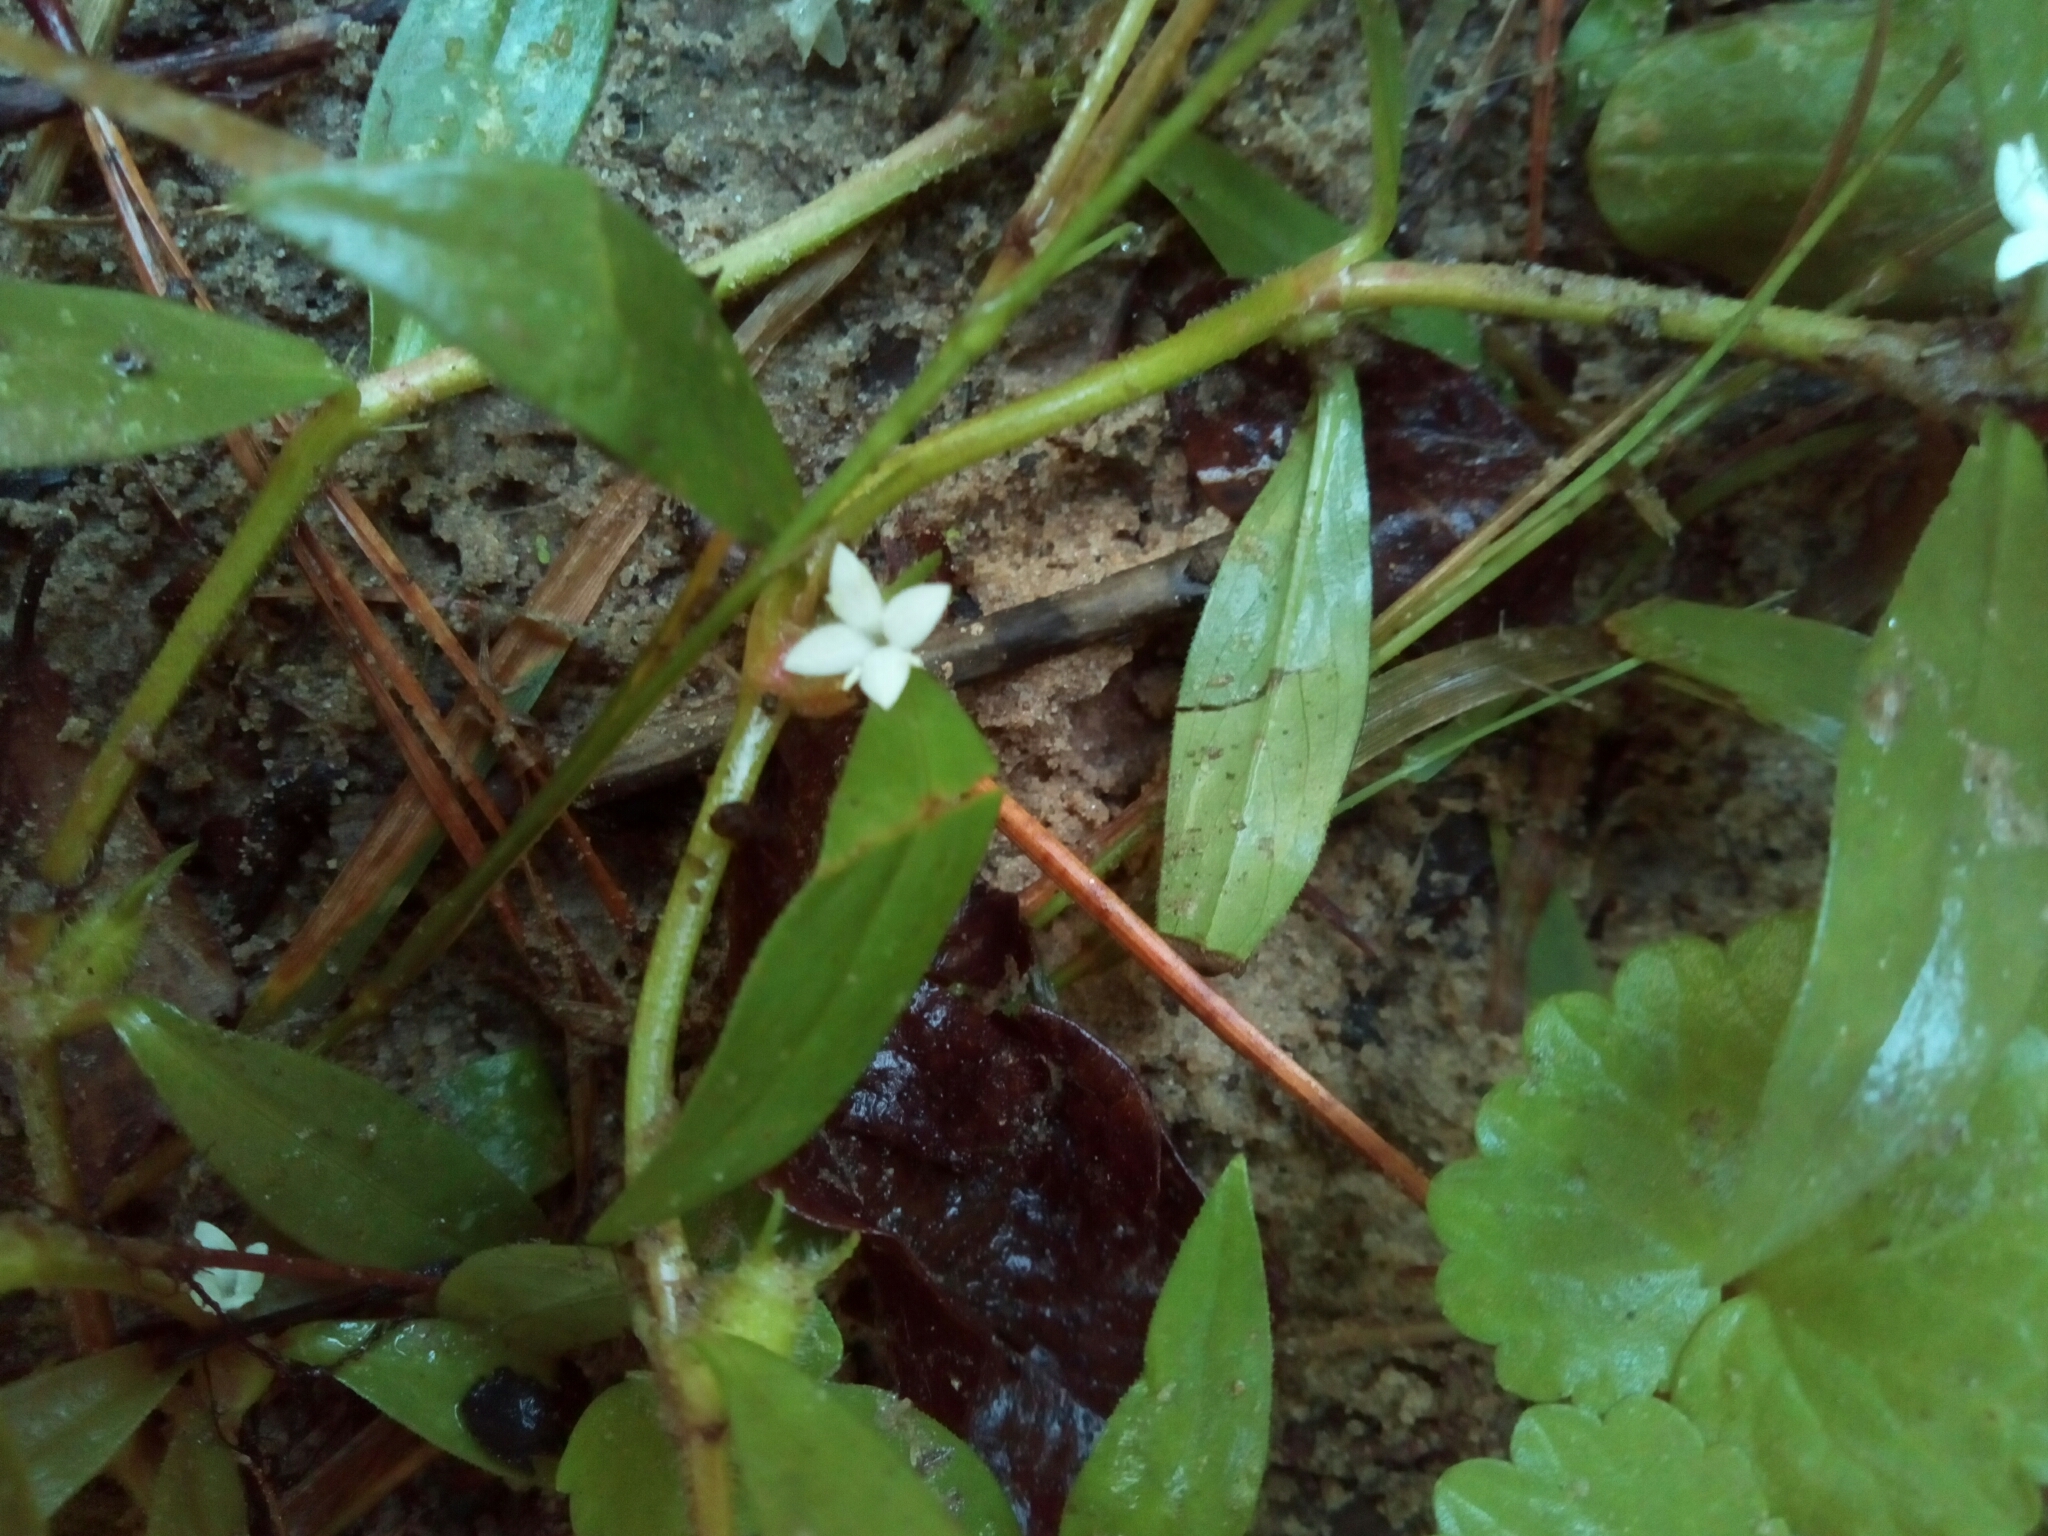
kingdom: Plantae
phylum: Tracheophyta
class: Magnoliopsida
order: Gentianales
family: Rubiaceae
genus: Diodia
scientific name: Diodia virginiana
